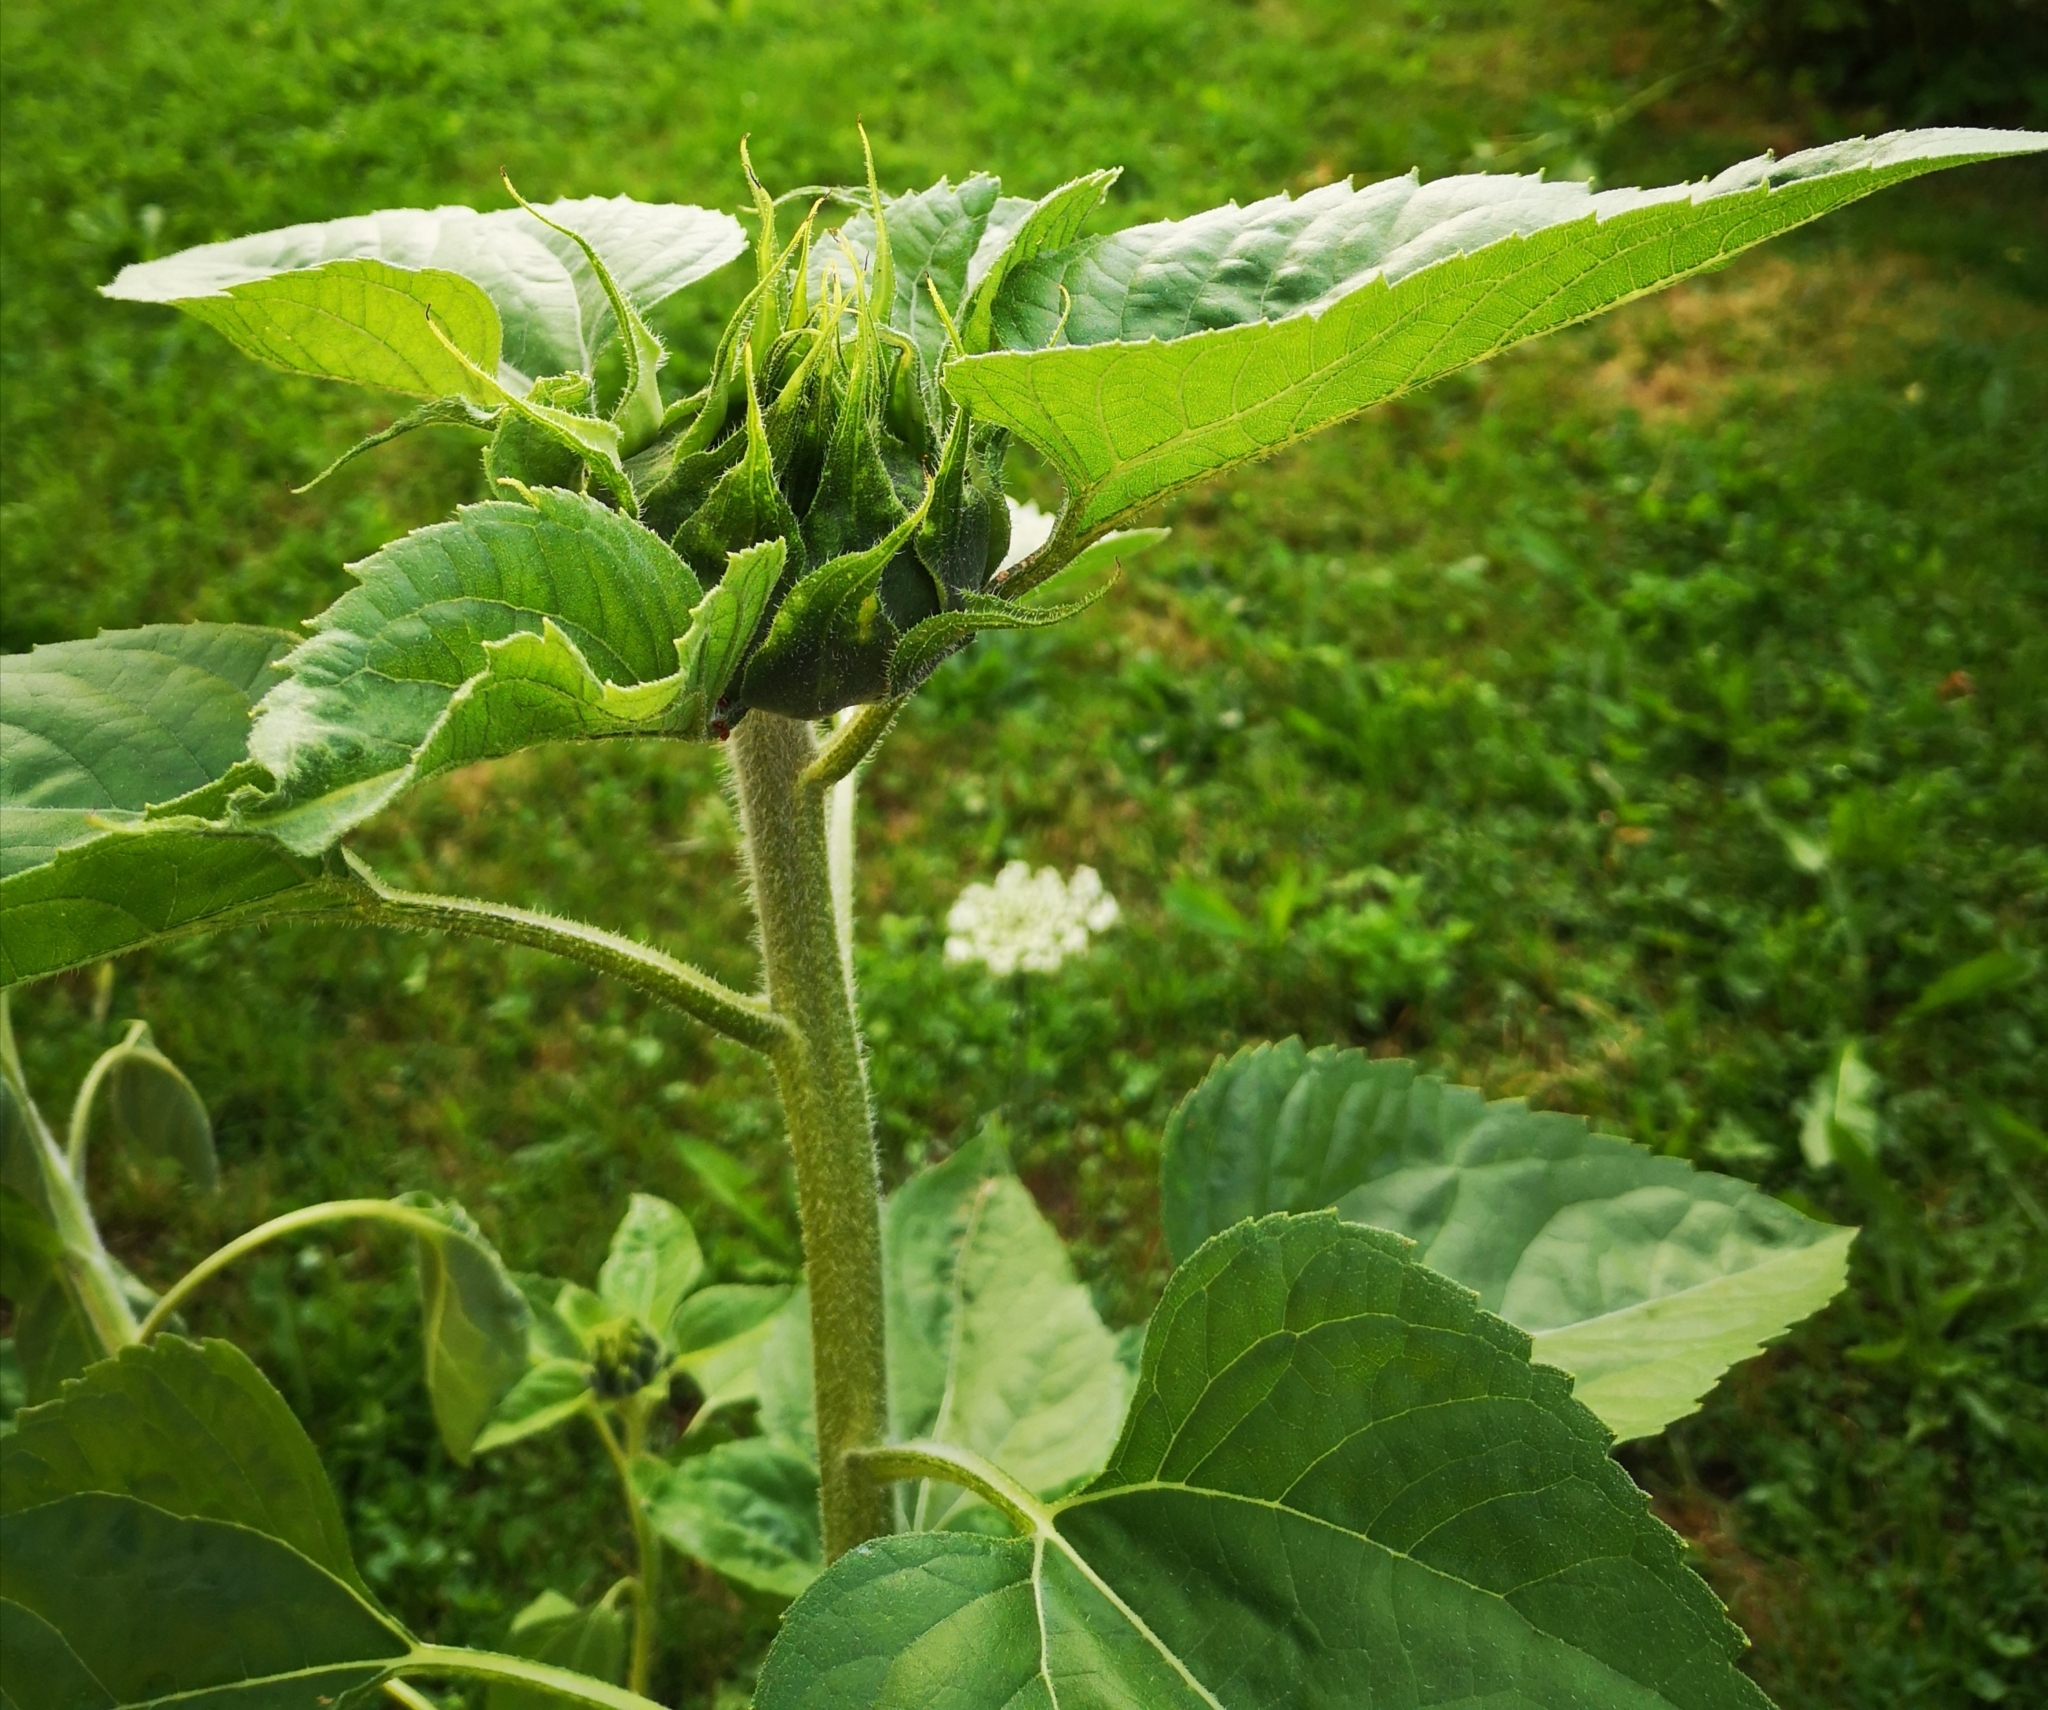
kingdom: Plantae
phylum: Tracheophyta
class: Magnoliopsida
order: Asterales
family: Asteraceae
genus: Helianthus
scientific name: Helianthus annuus
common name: Sunflower
